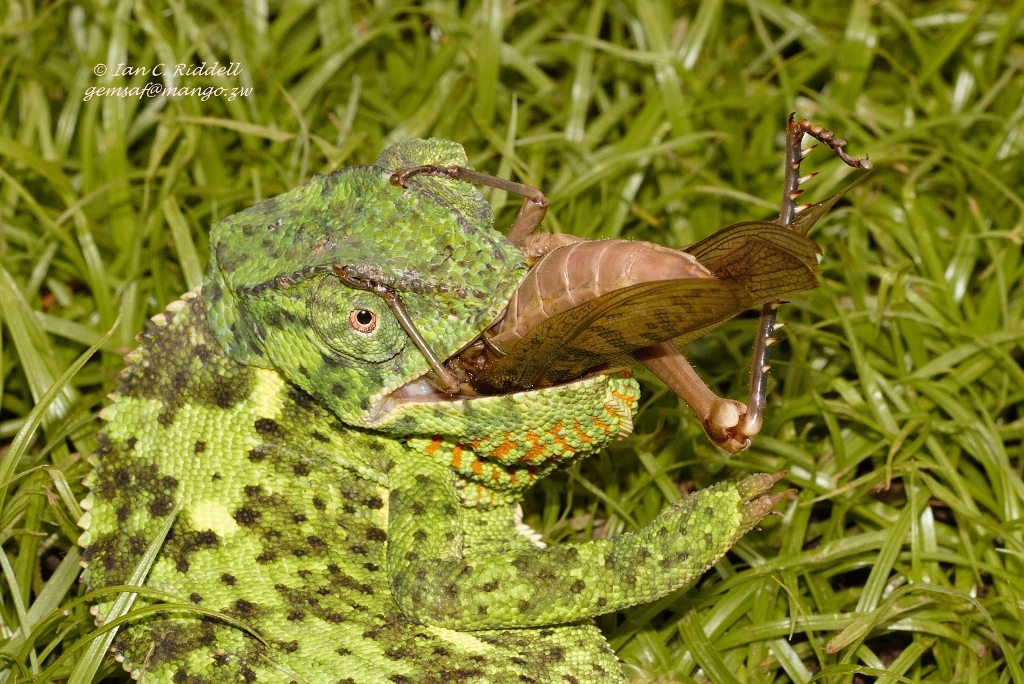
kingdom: Animalia
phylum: Chordata
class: Squamata
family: Chamaeleonidae
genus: Chamaeleo
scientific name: Chamaeleo dilepis
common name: Flapneck chameleon
